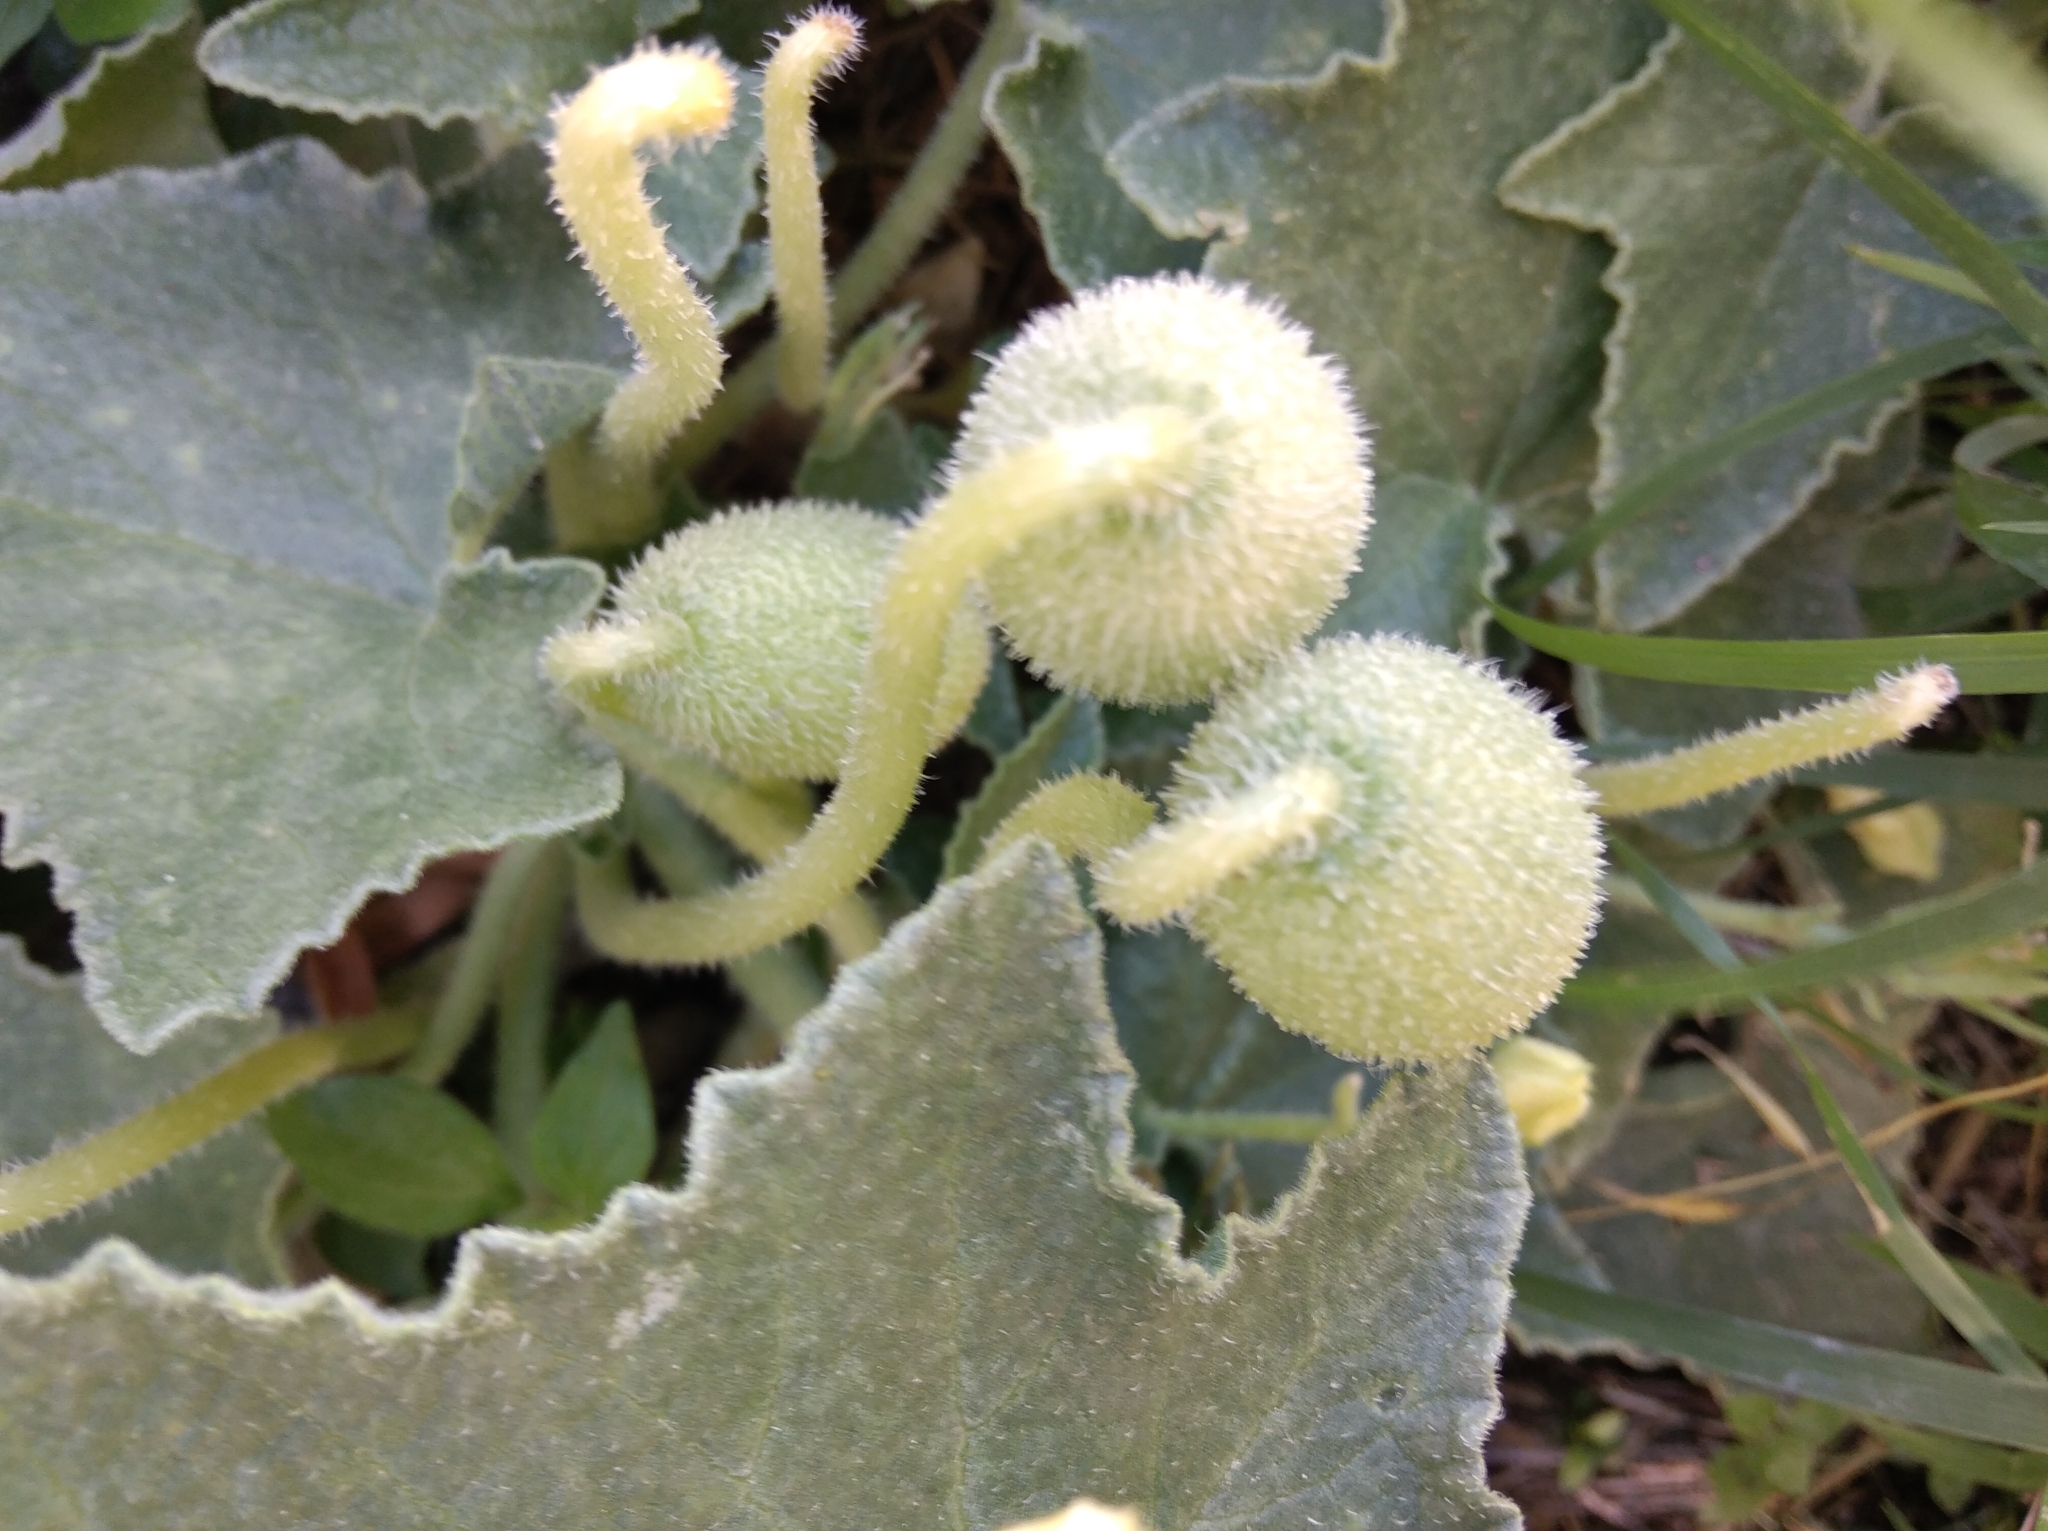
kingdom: Plantae
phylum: Tracheophyta
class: Magnoliopsida
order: Cucurbitales
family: Cucurbitaceae
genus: Ecballium
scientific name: Ecballium elaterium
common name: Squirting cucumber
